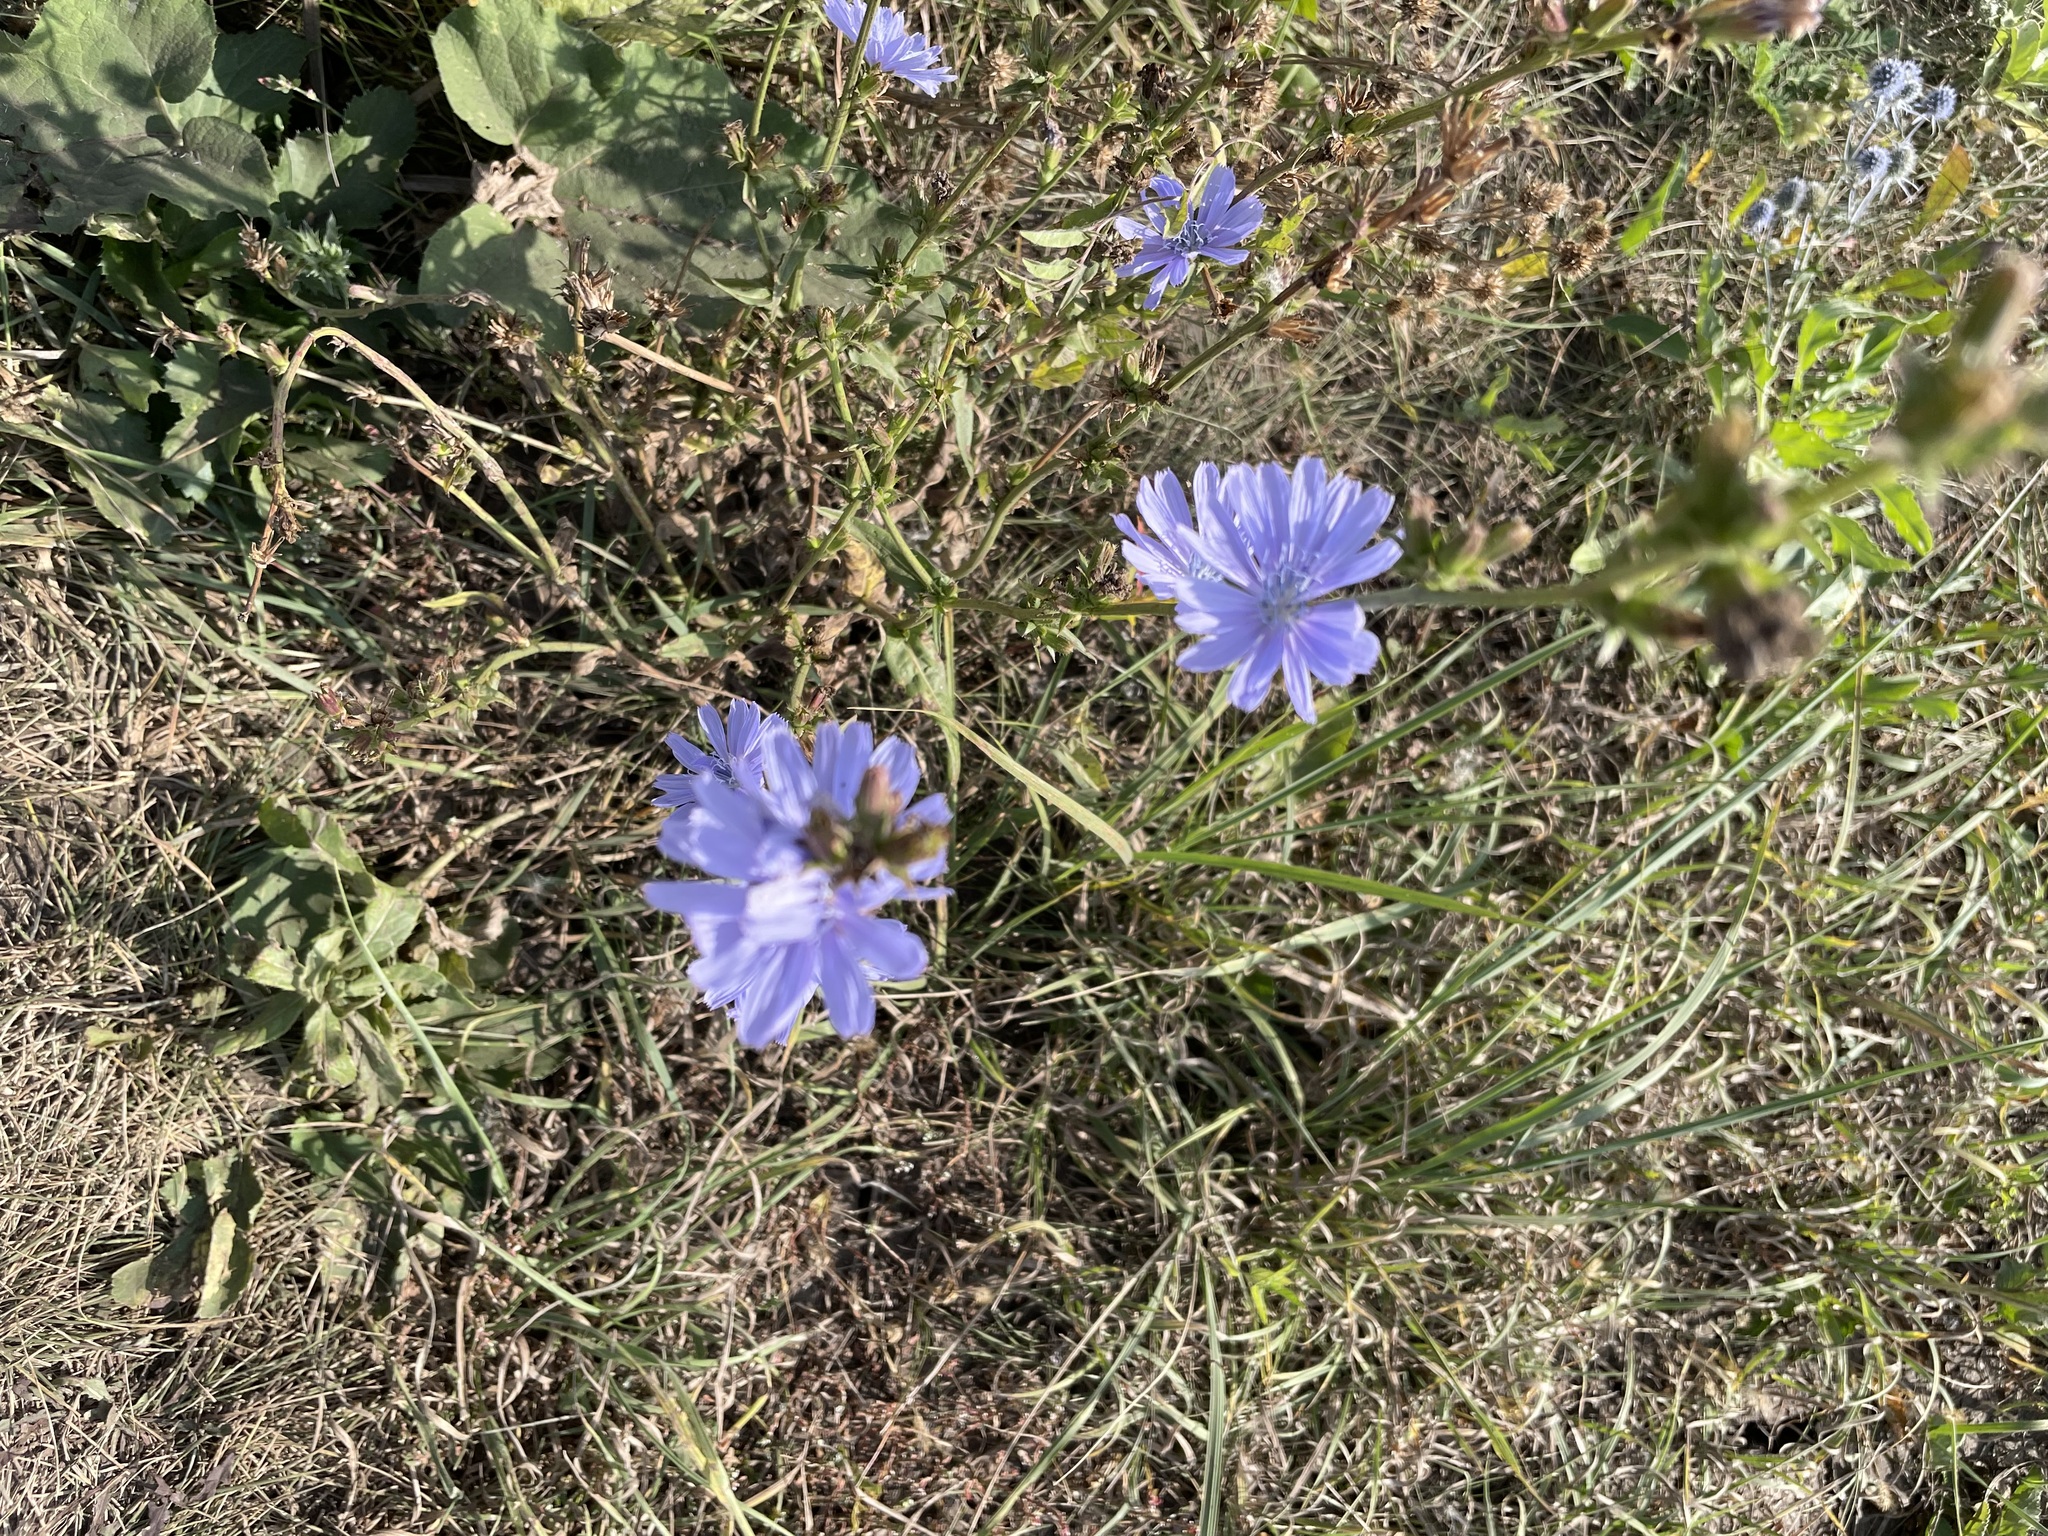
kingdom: Plantae
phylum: Tracheophyta
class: Magnoliopsida
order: Asterales
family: Asteraceae
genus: Cichorium
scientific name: Cichorium intybus
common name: Chicory
